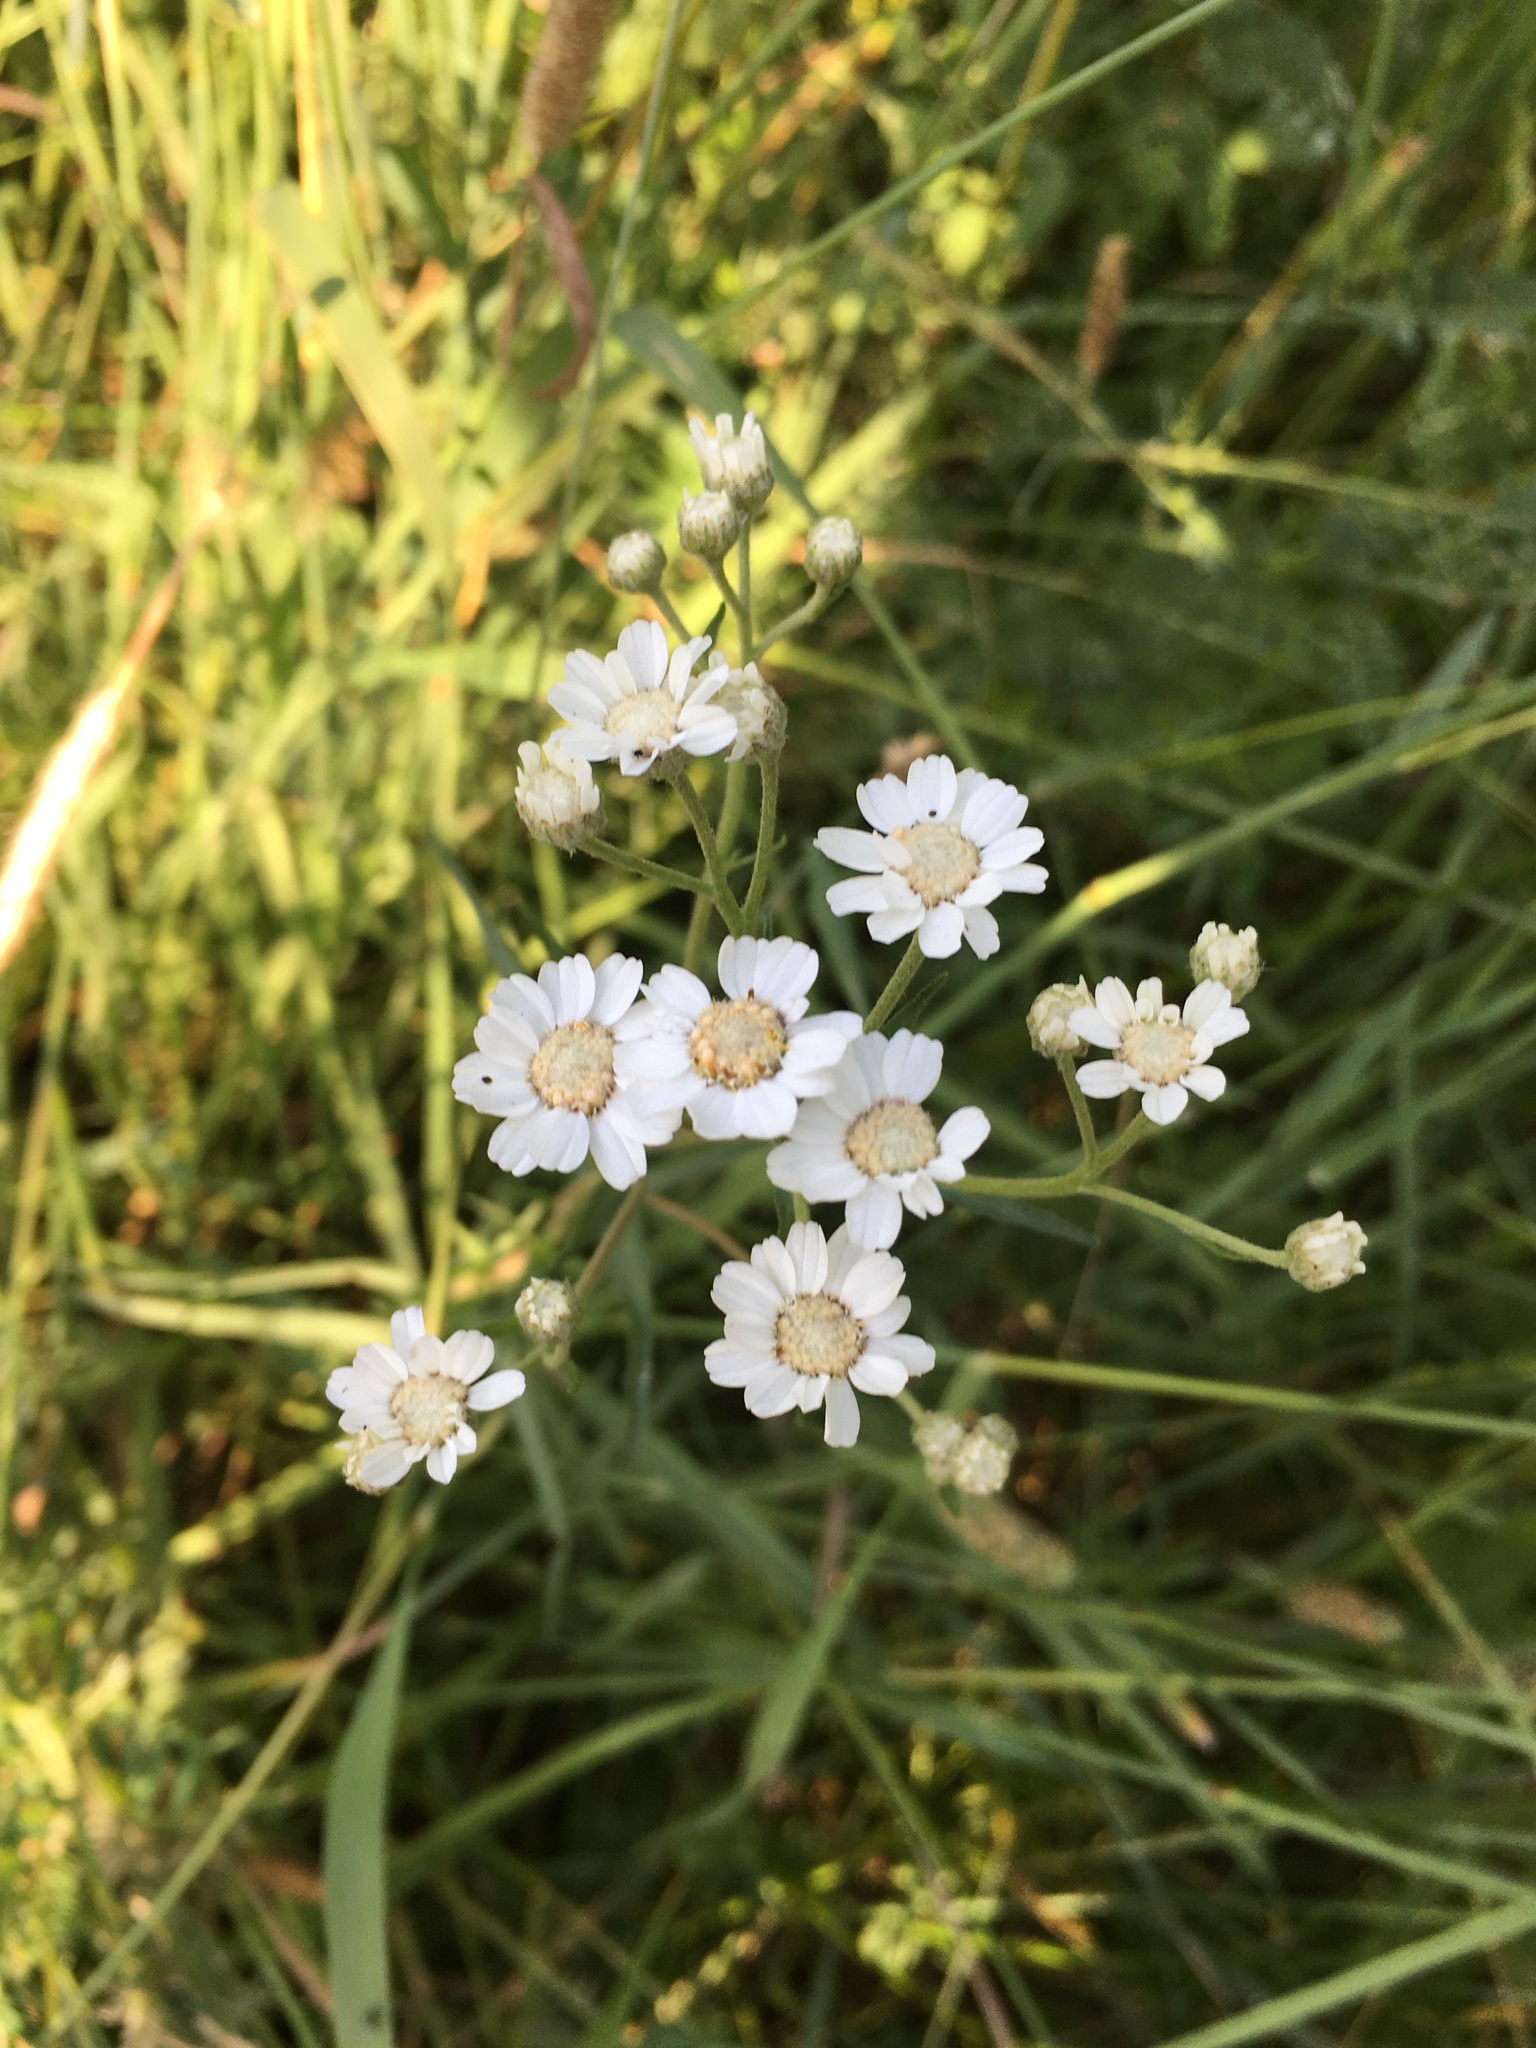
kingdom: Plantae
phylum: Tracheophyta
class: Magnoliopsida
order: Asterales
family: Asteraceae
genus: Achillea
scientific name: Achillea ptarmica
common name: Sneezeweed
